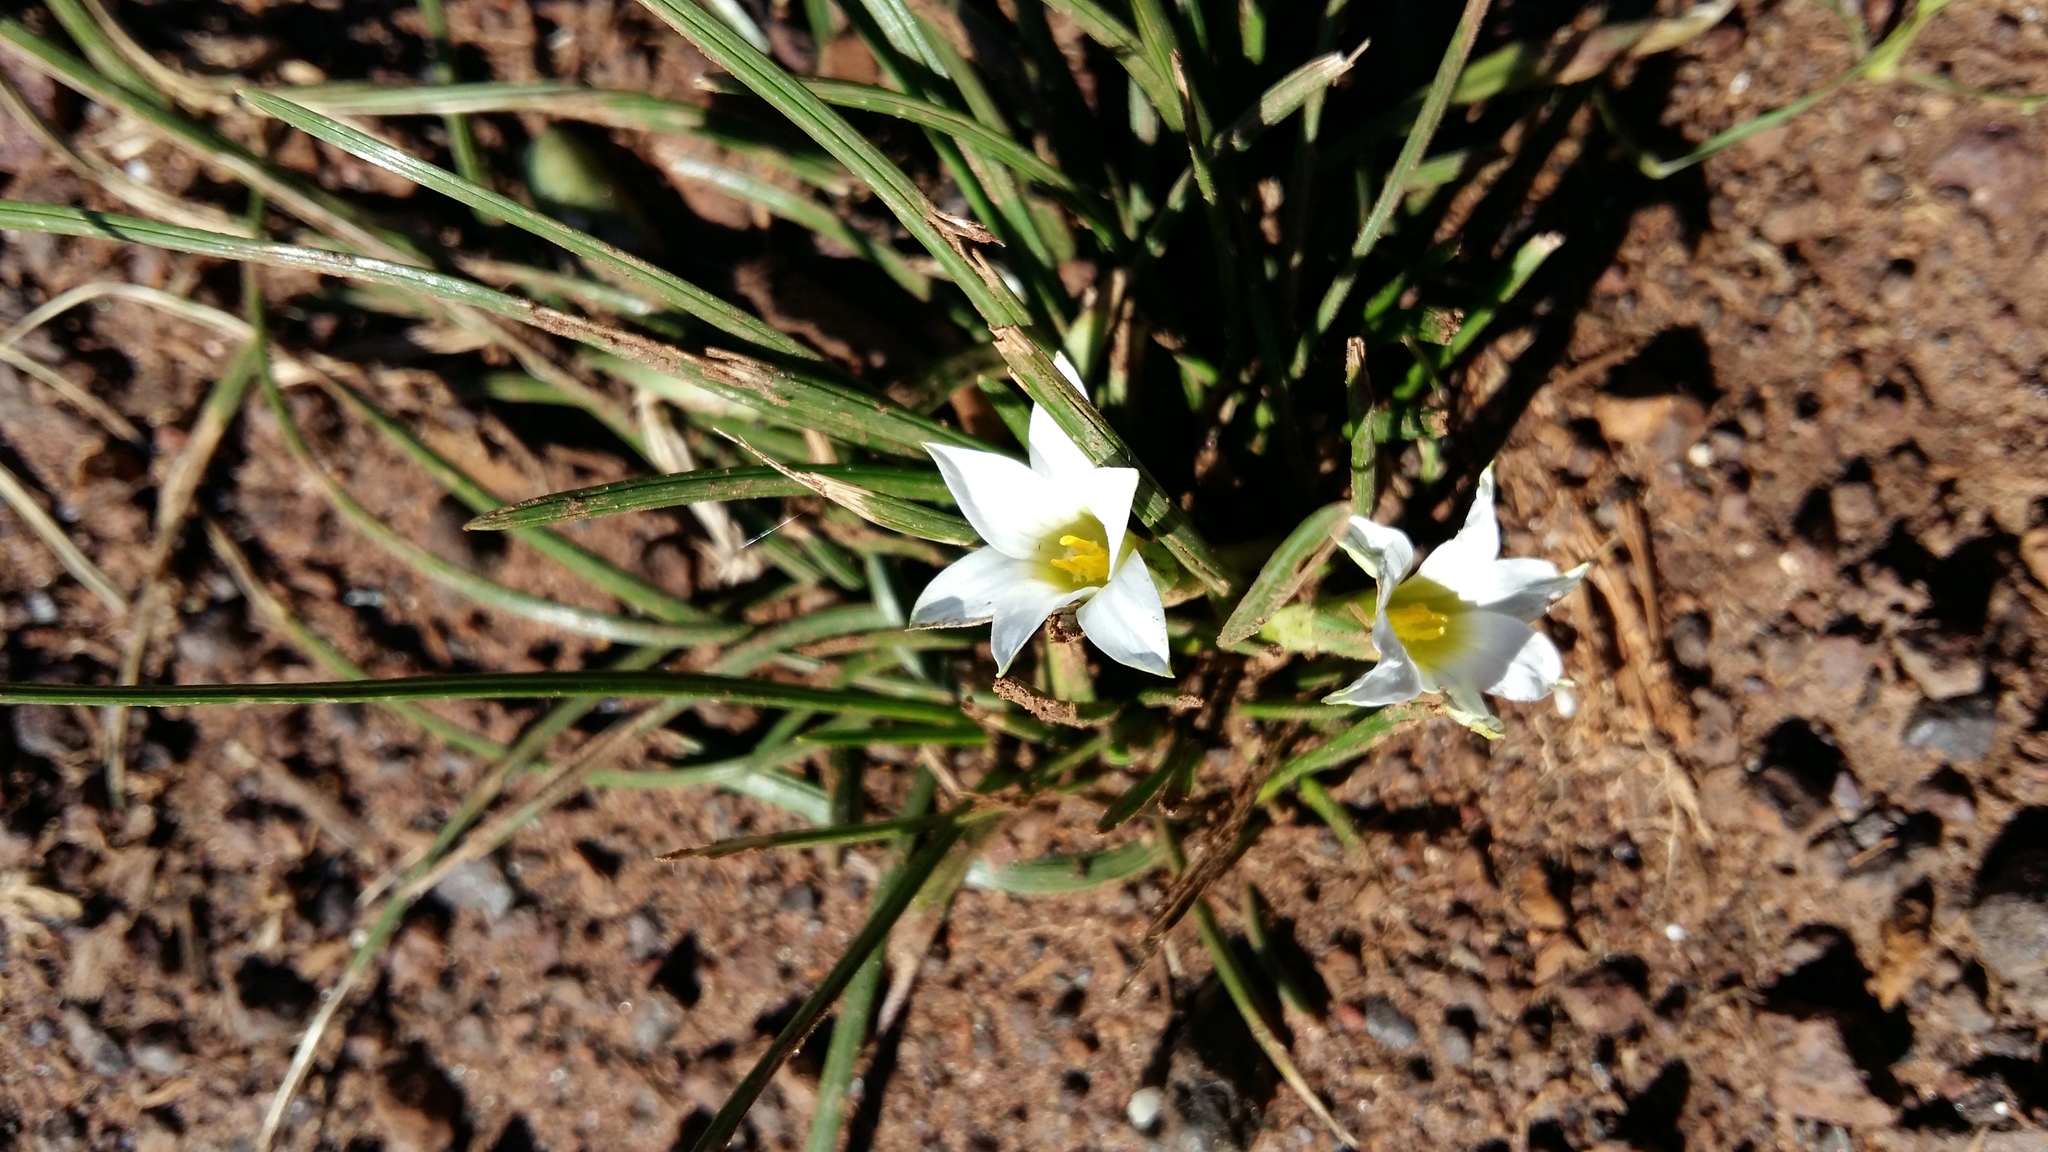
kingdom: Plantae
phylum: Tracheophyta
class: Liliopsida
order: Asparagales
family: Iridaceae
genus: Romulea
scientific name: Romulea flava
